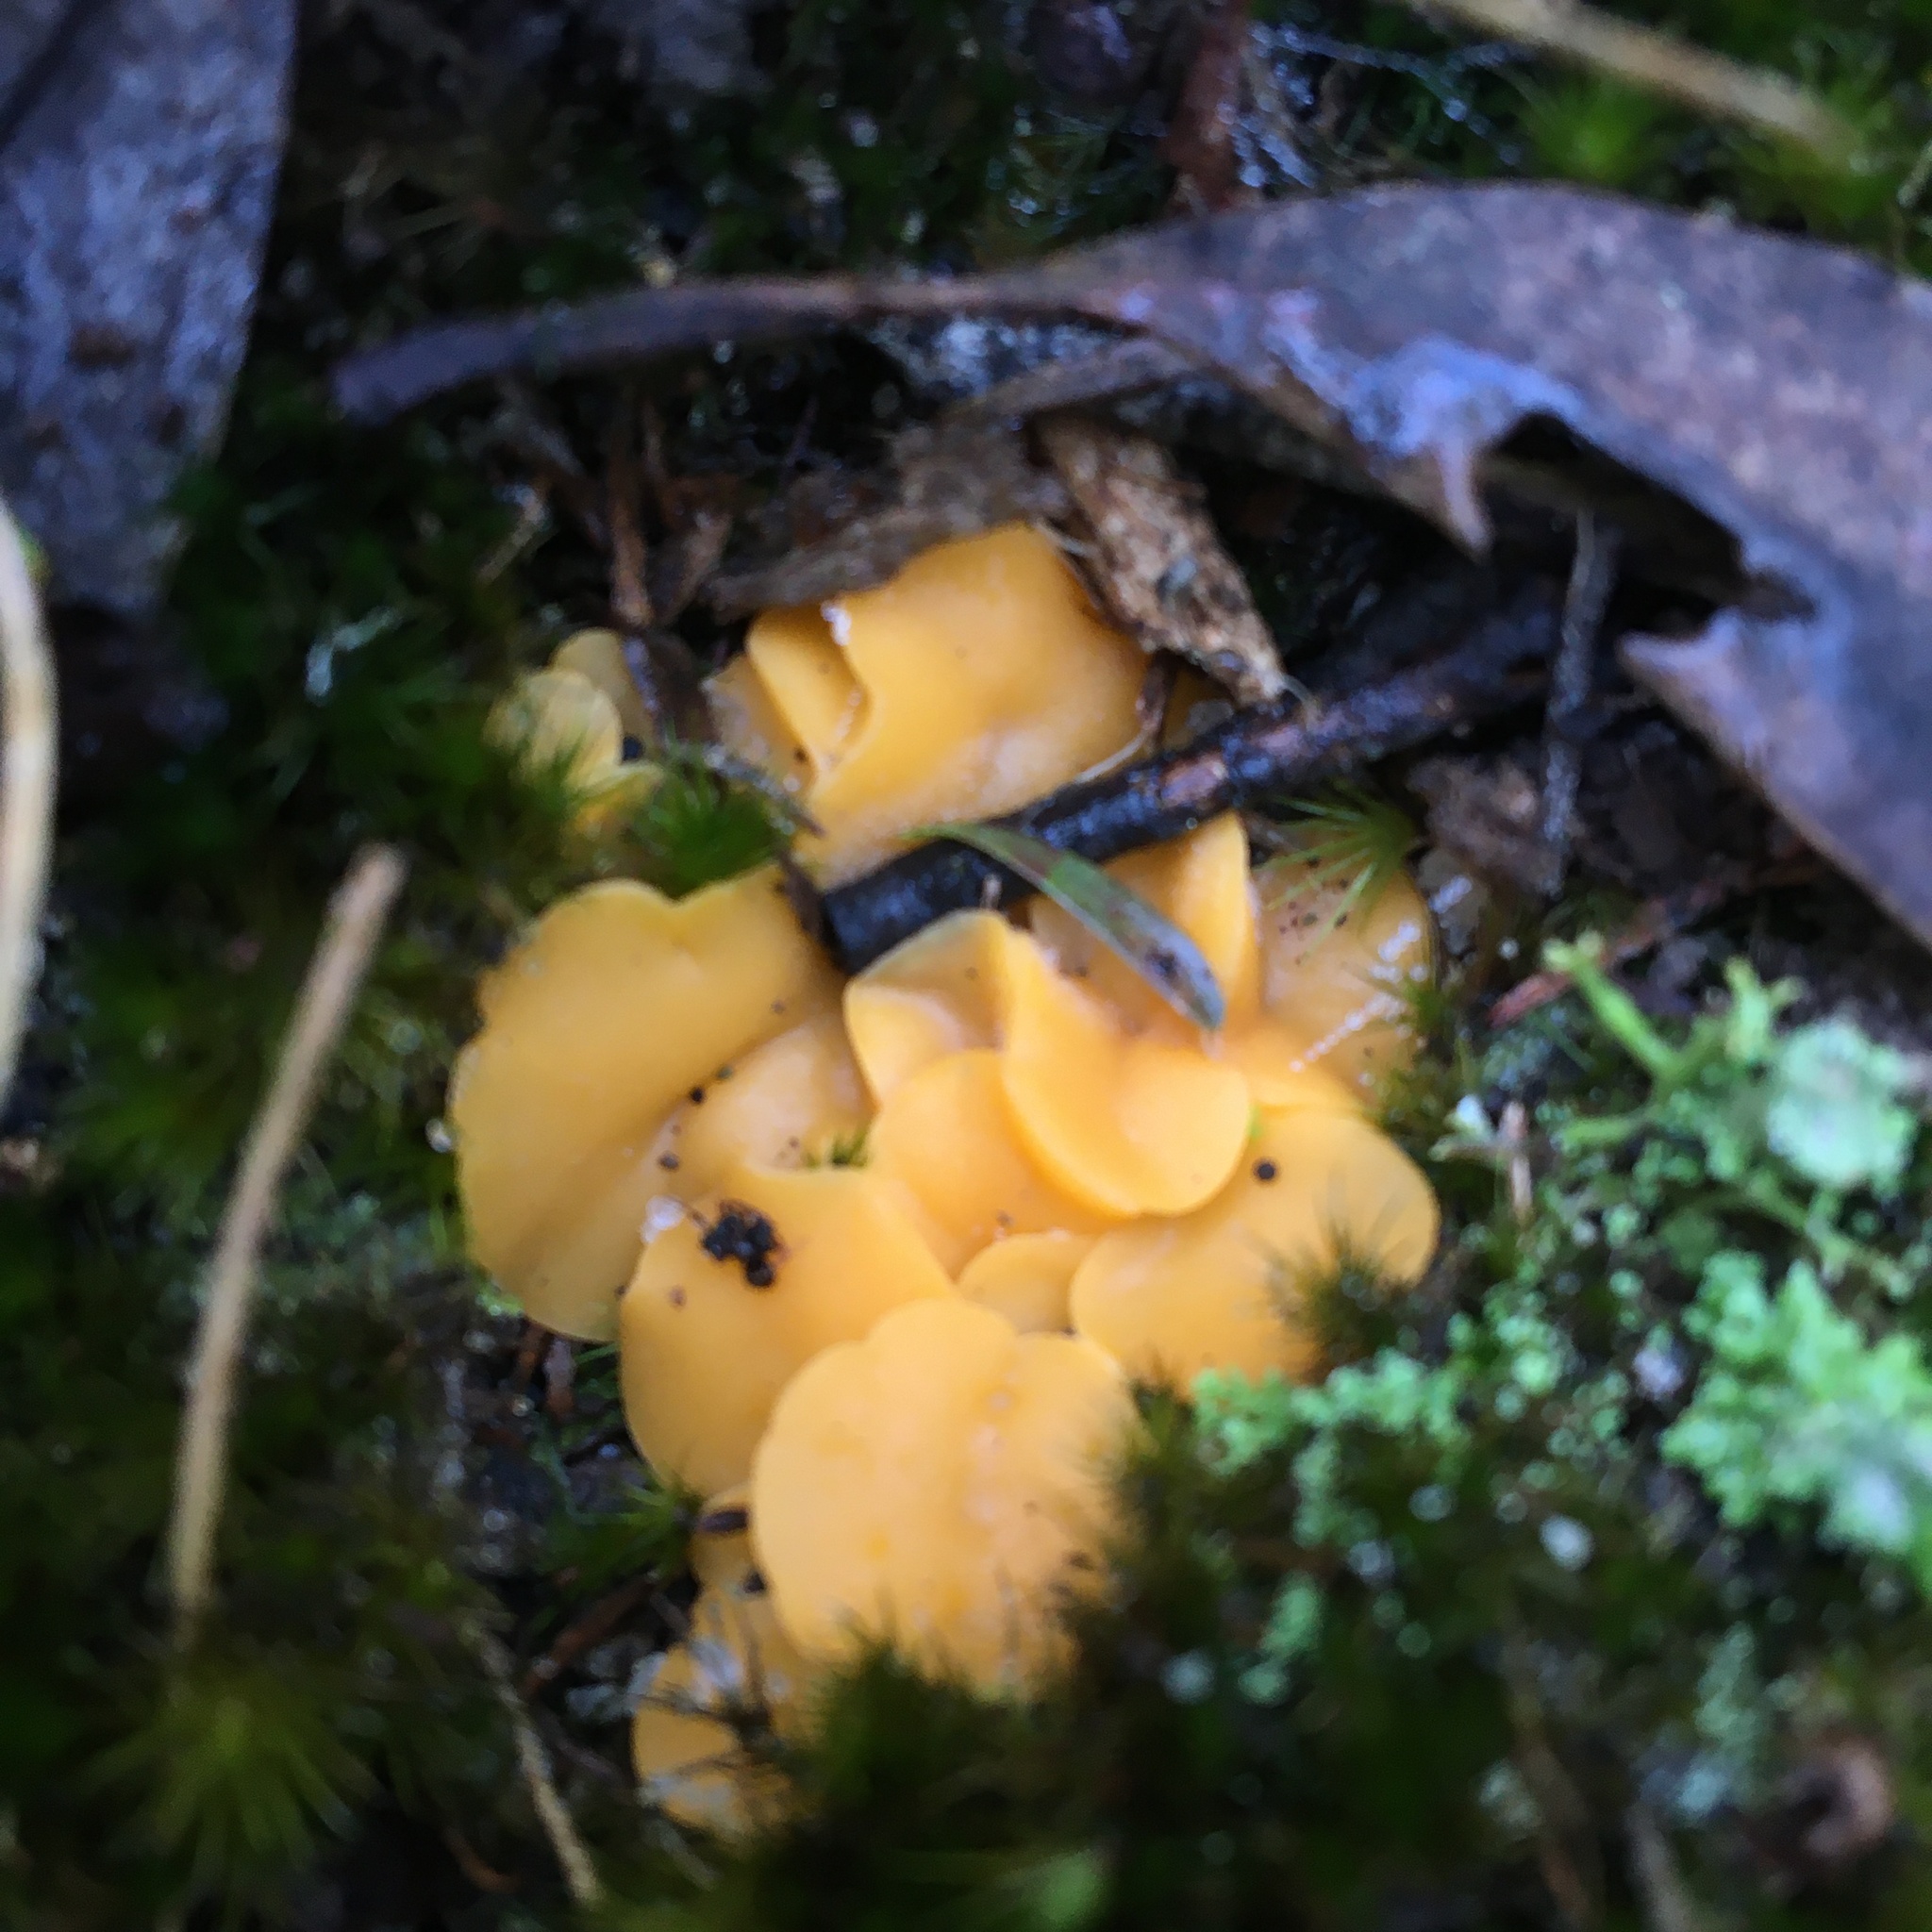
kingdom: Fungi
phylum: Ascomycota
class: Leotiomycetes
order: Helotiales
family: Helotiaceae
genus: Phaeohelotium
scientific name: Phaeohelotium baileyanum
